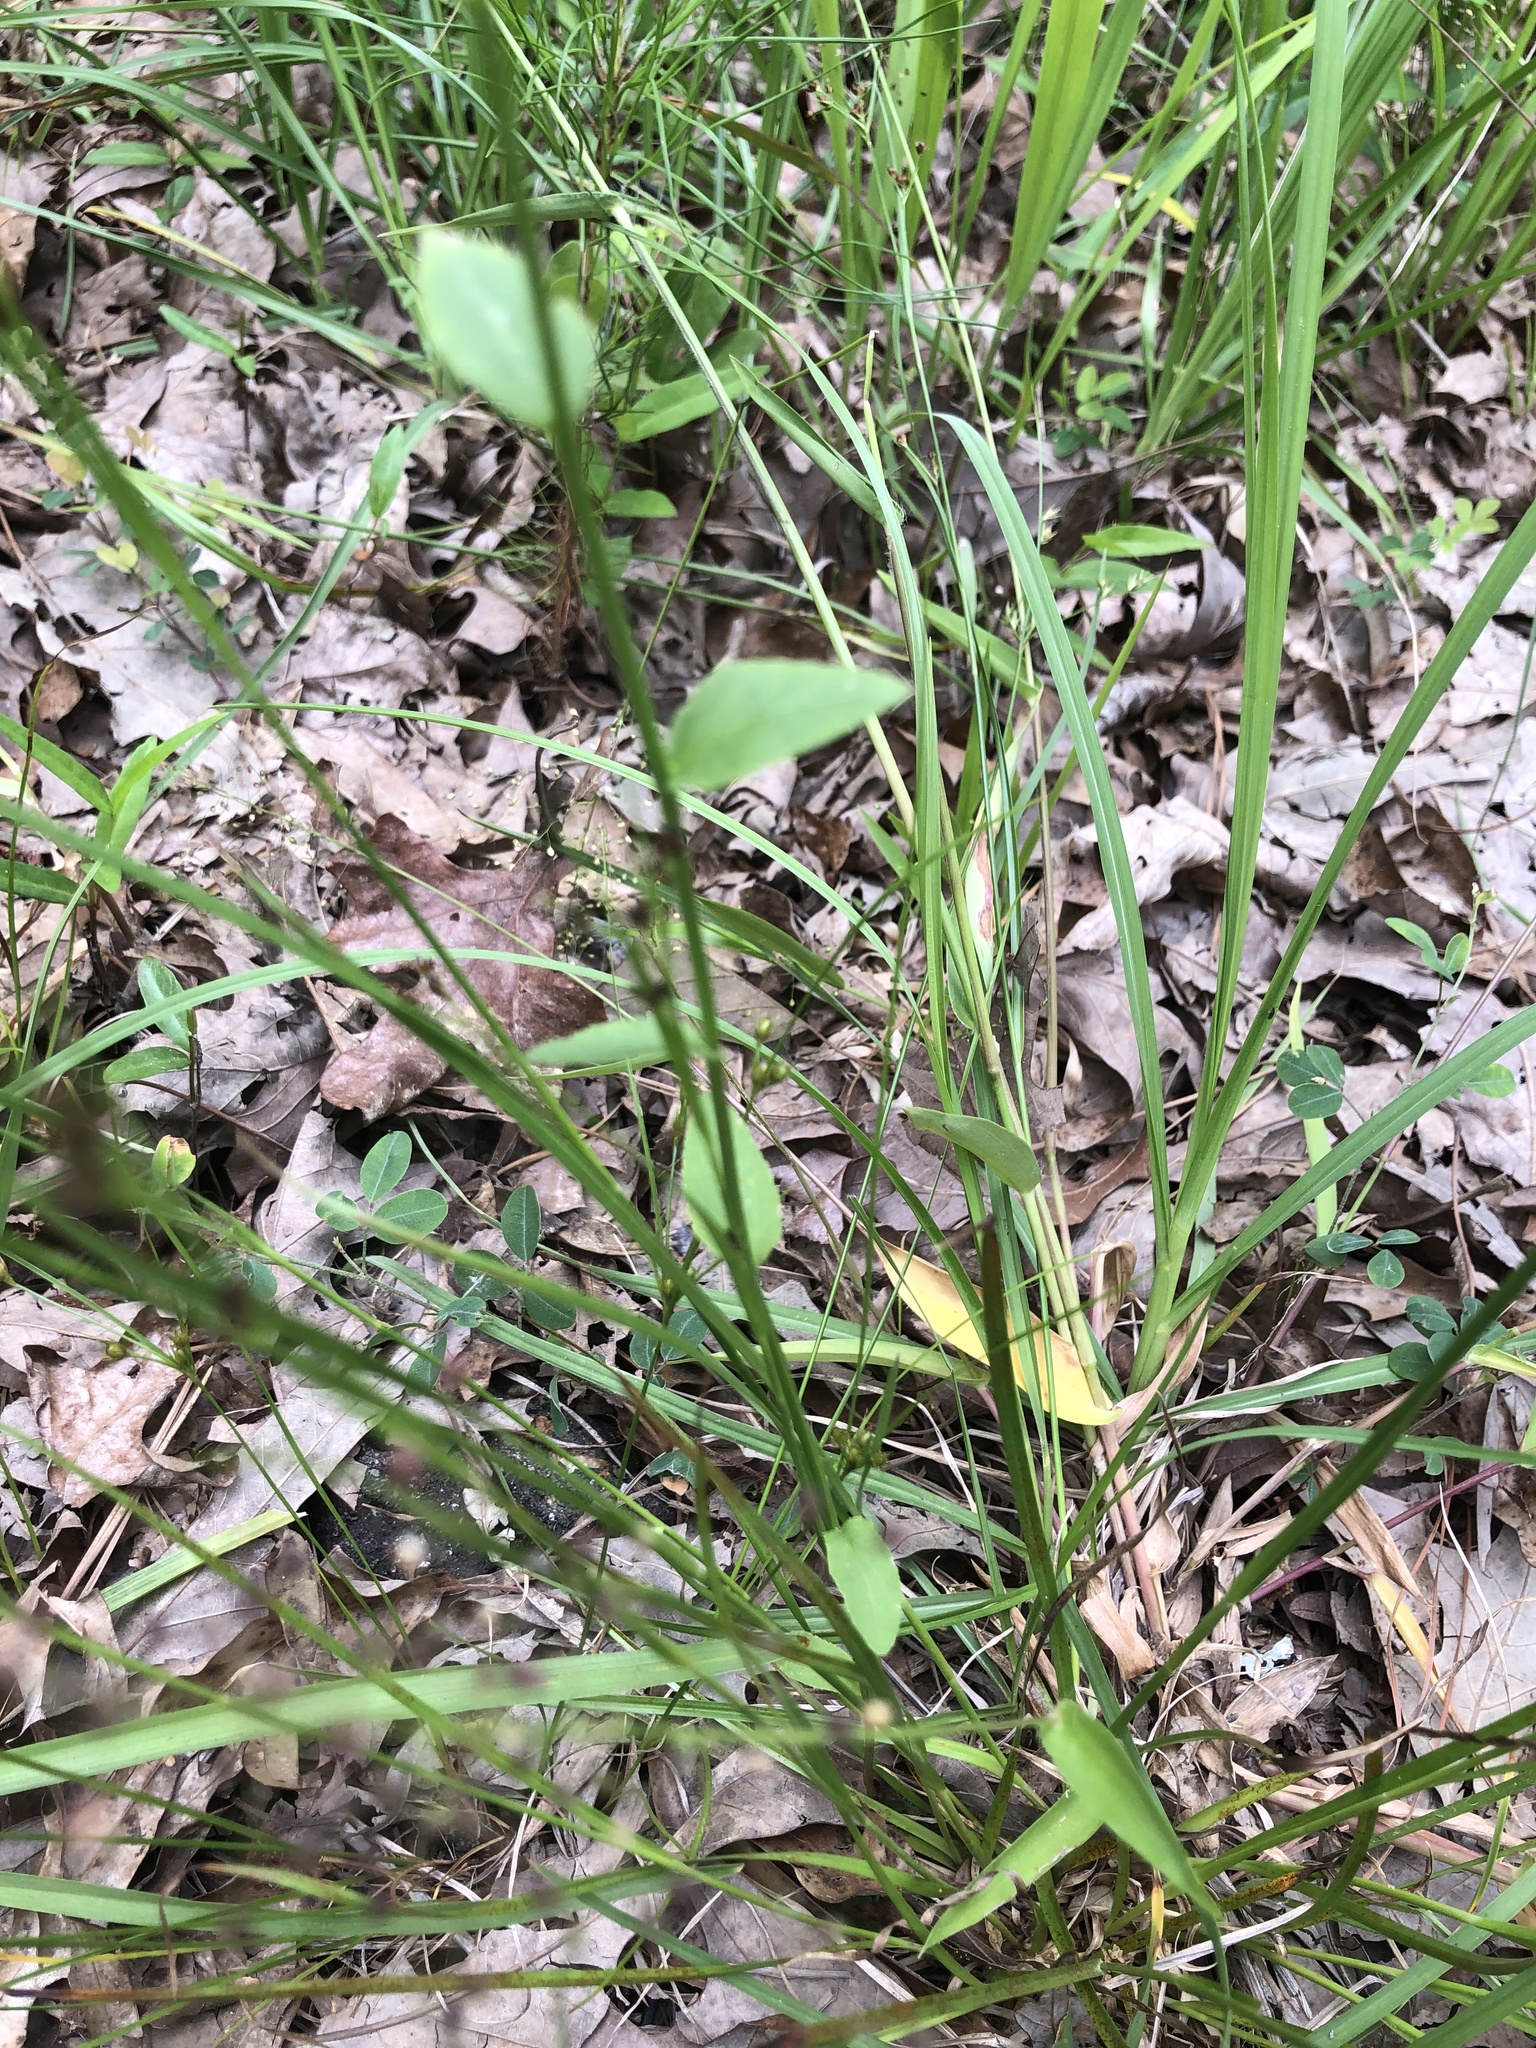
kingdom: Plantae
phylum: Tracheophyta
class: Magnoliopsida
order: Asterales
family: Campanulaceae
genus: Lobelia
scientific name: Lobelia appendiculata
